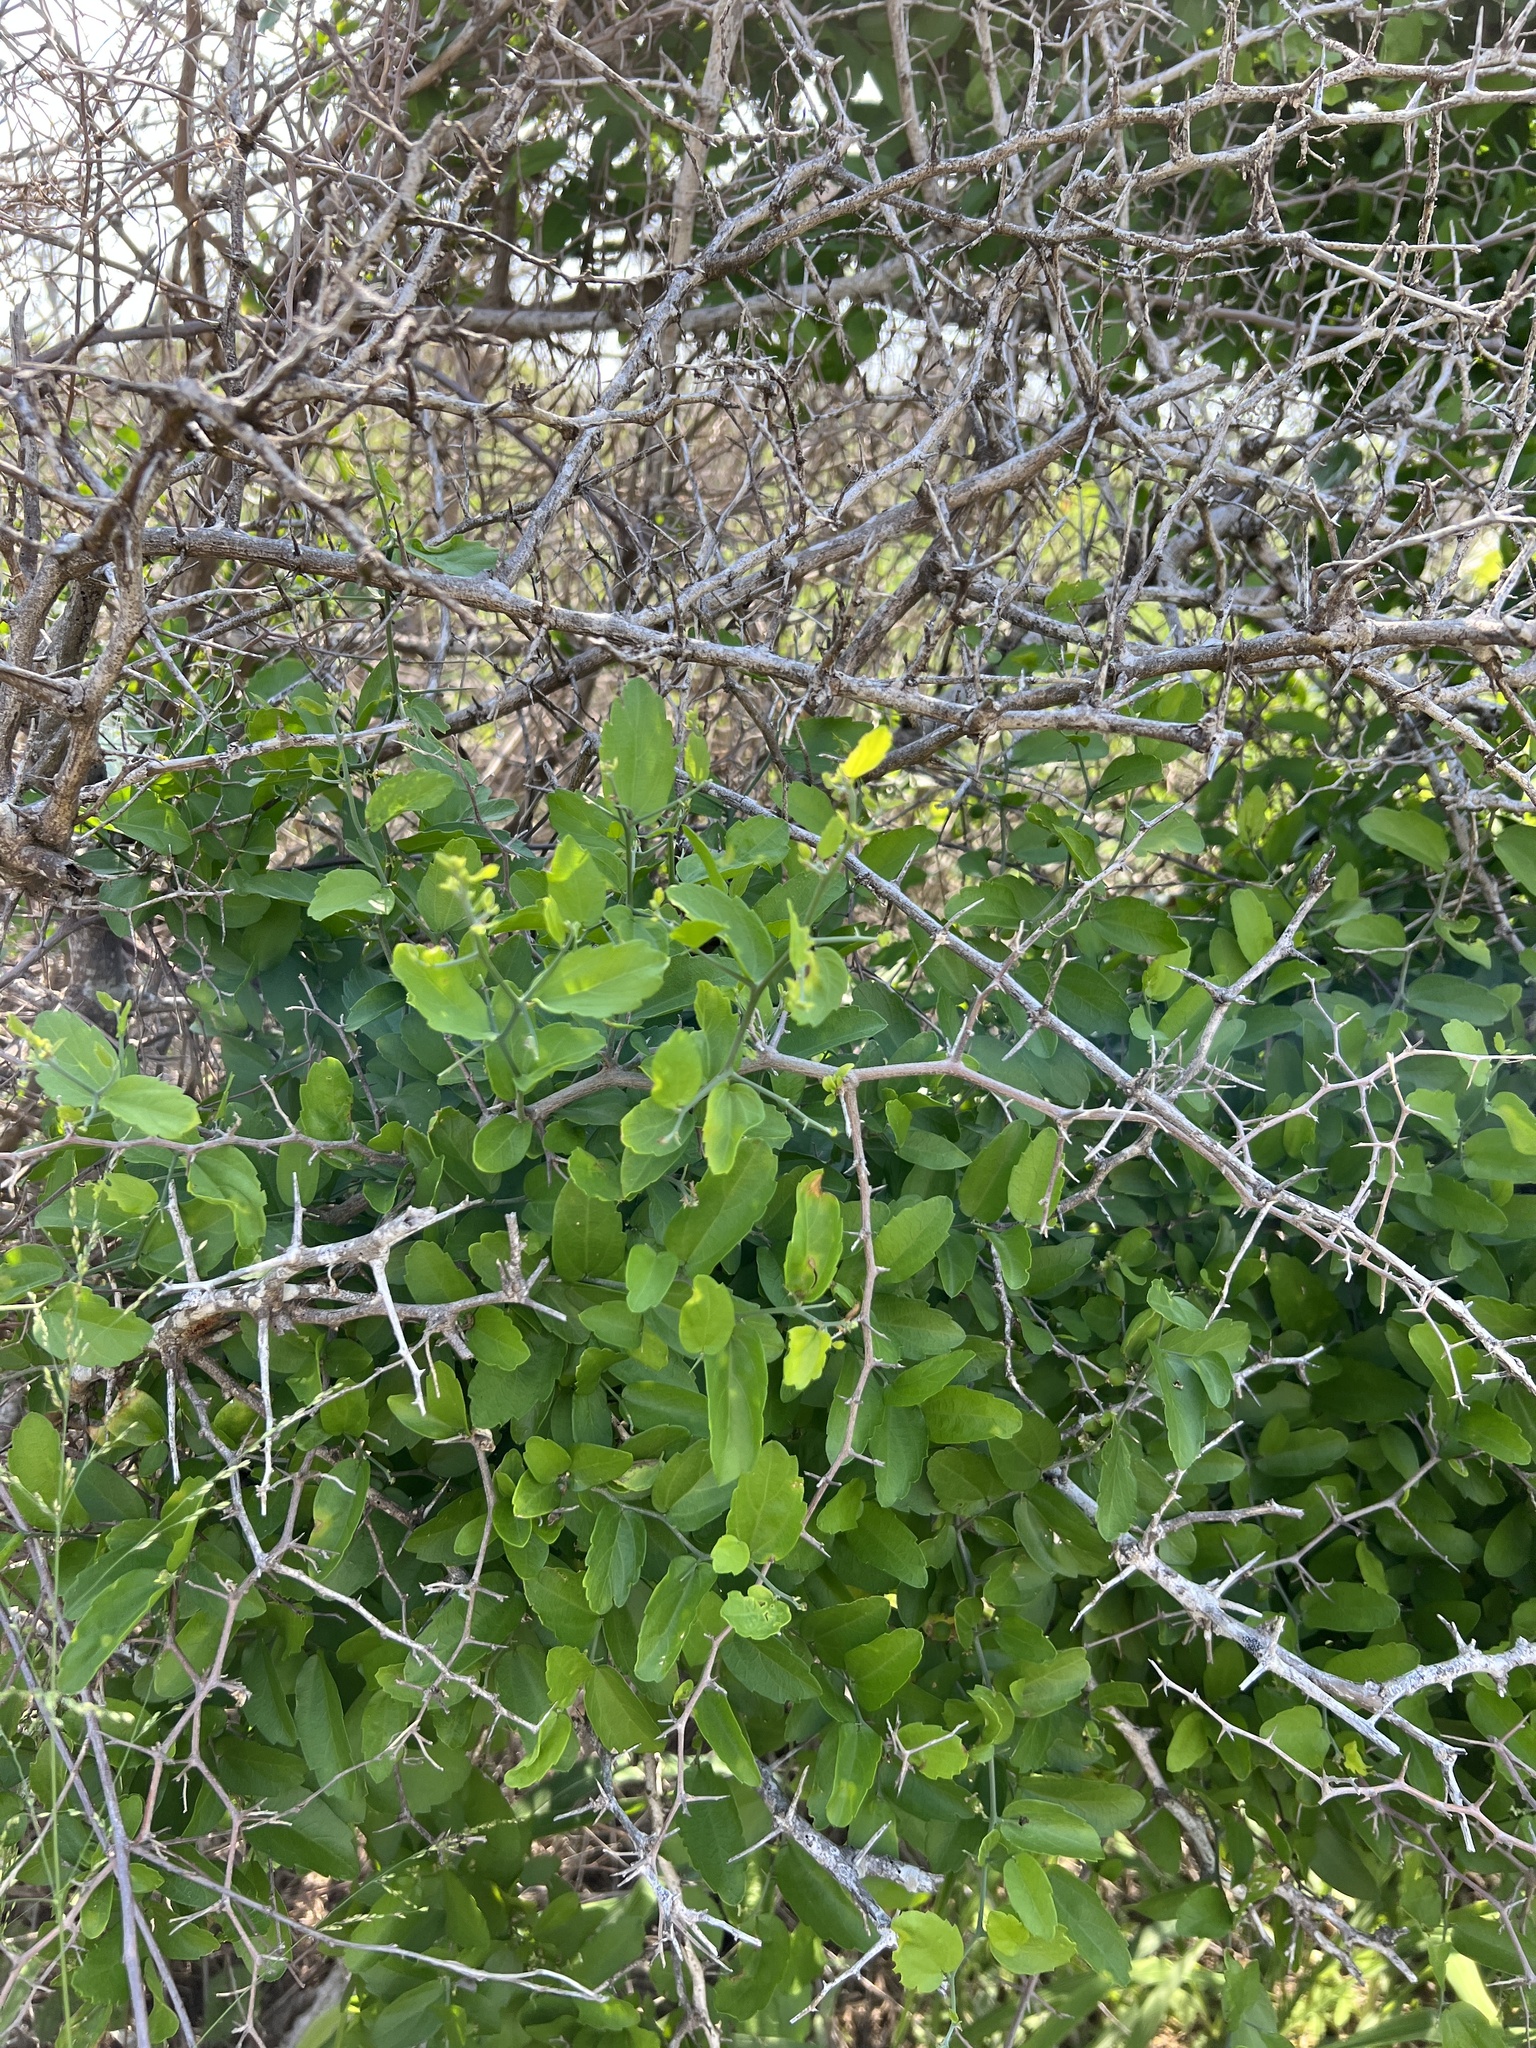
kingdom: Plantae
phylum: Tracheophyta
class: Magnoliopsida
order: Rosales
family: Cannabaceae
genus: Celtis
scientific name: Celtis pallida
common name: Desert hackberry
